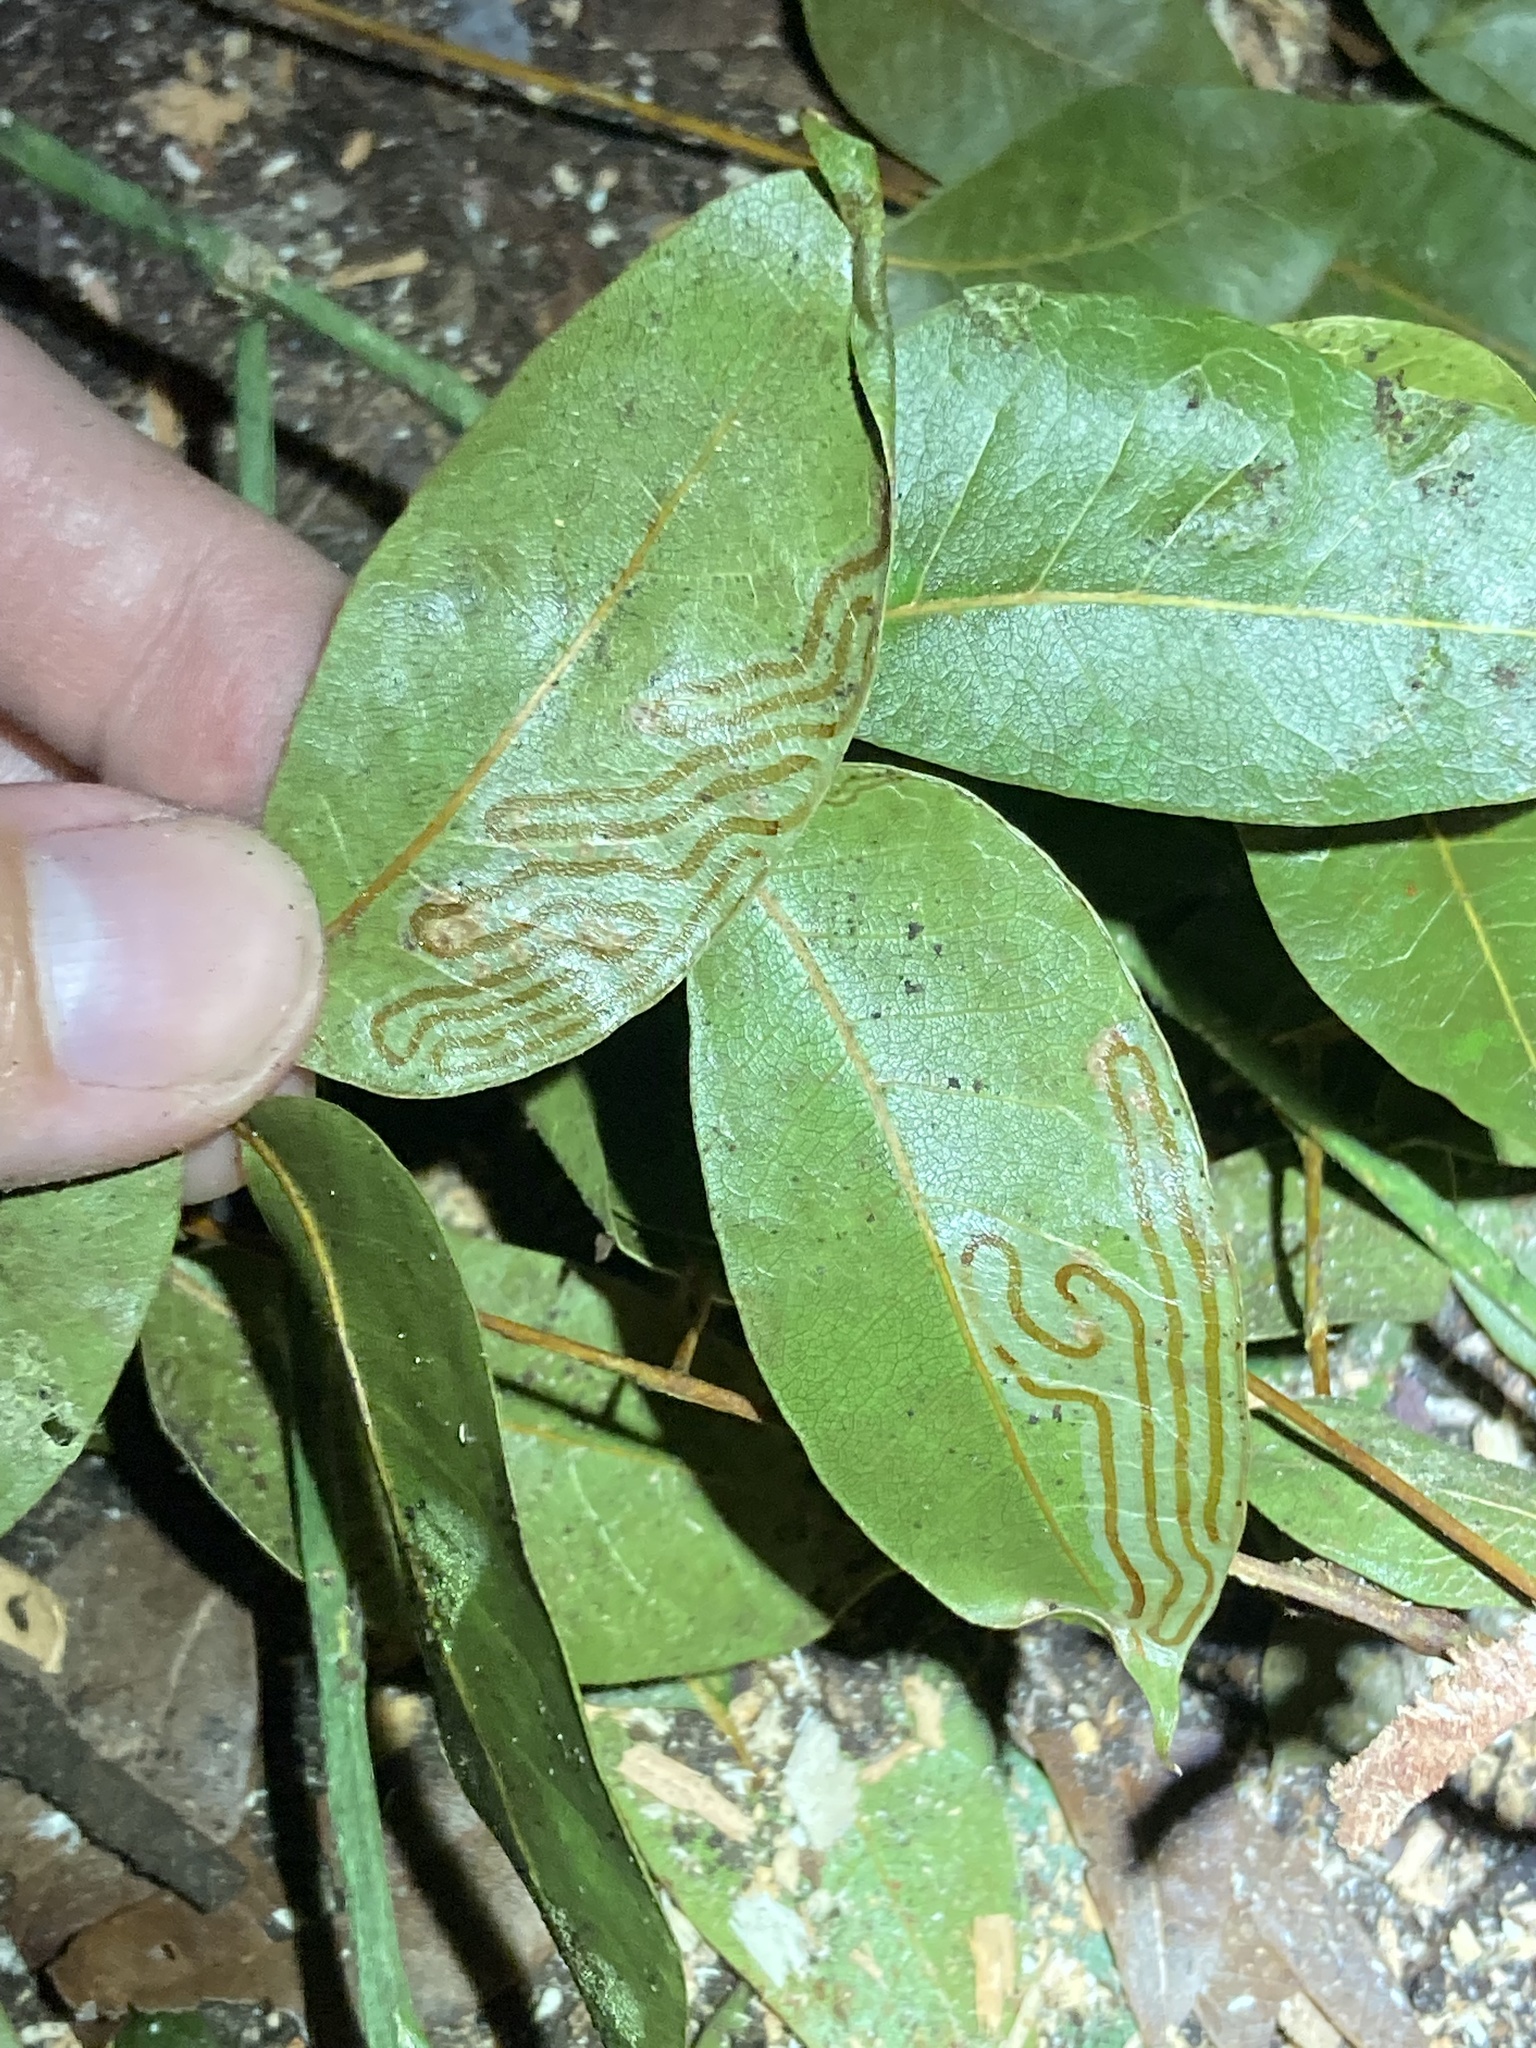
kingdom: Animalia
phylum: Arthropoda
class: Insecta
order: Lepidoptera
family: Gracillariidae
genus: Phyllocnistis
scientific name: Phyllocnistis meliacella
